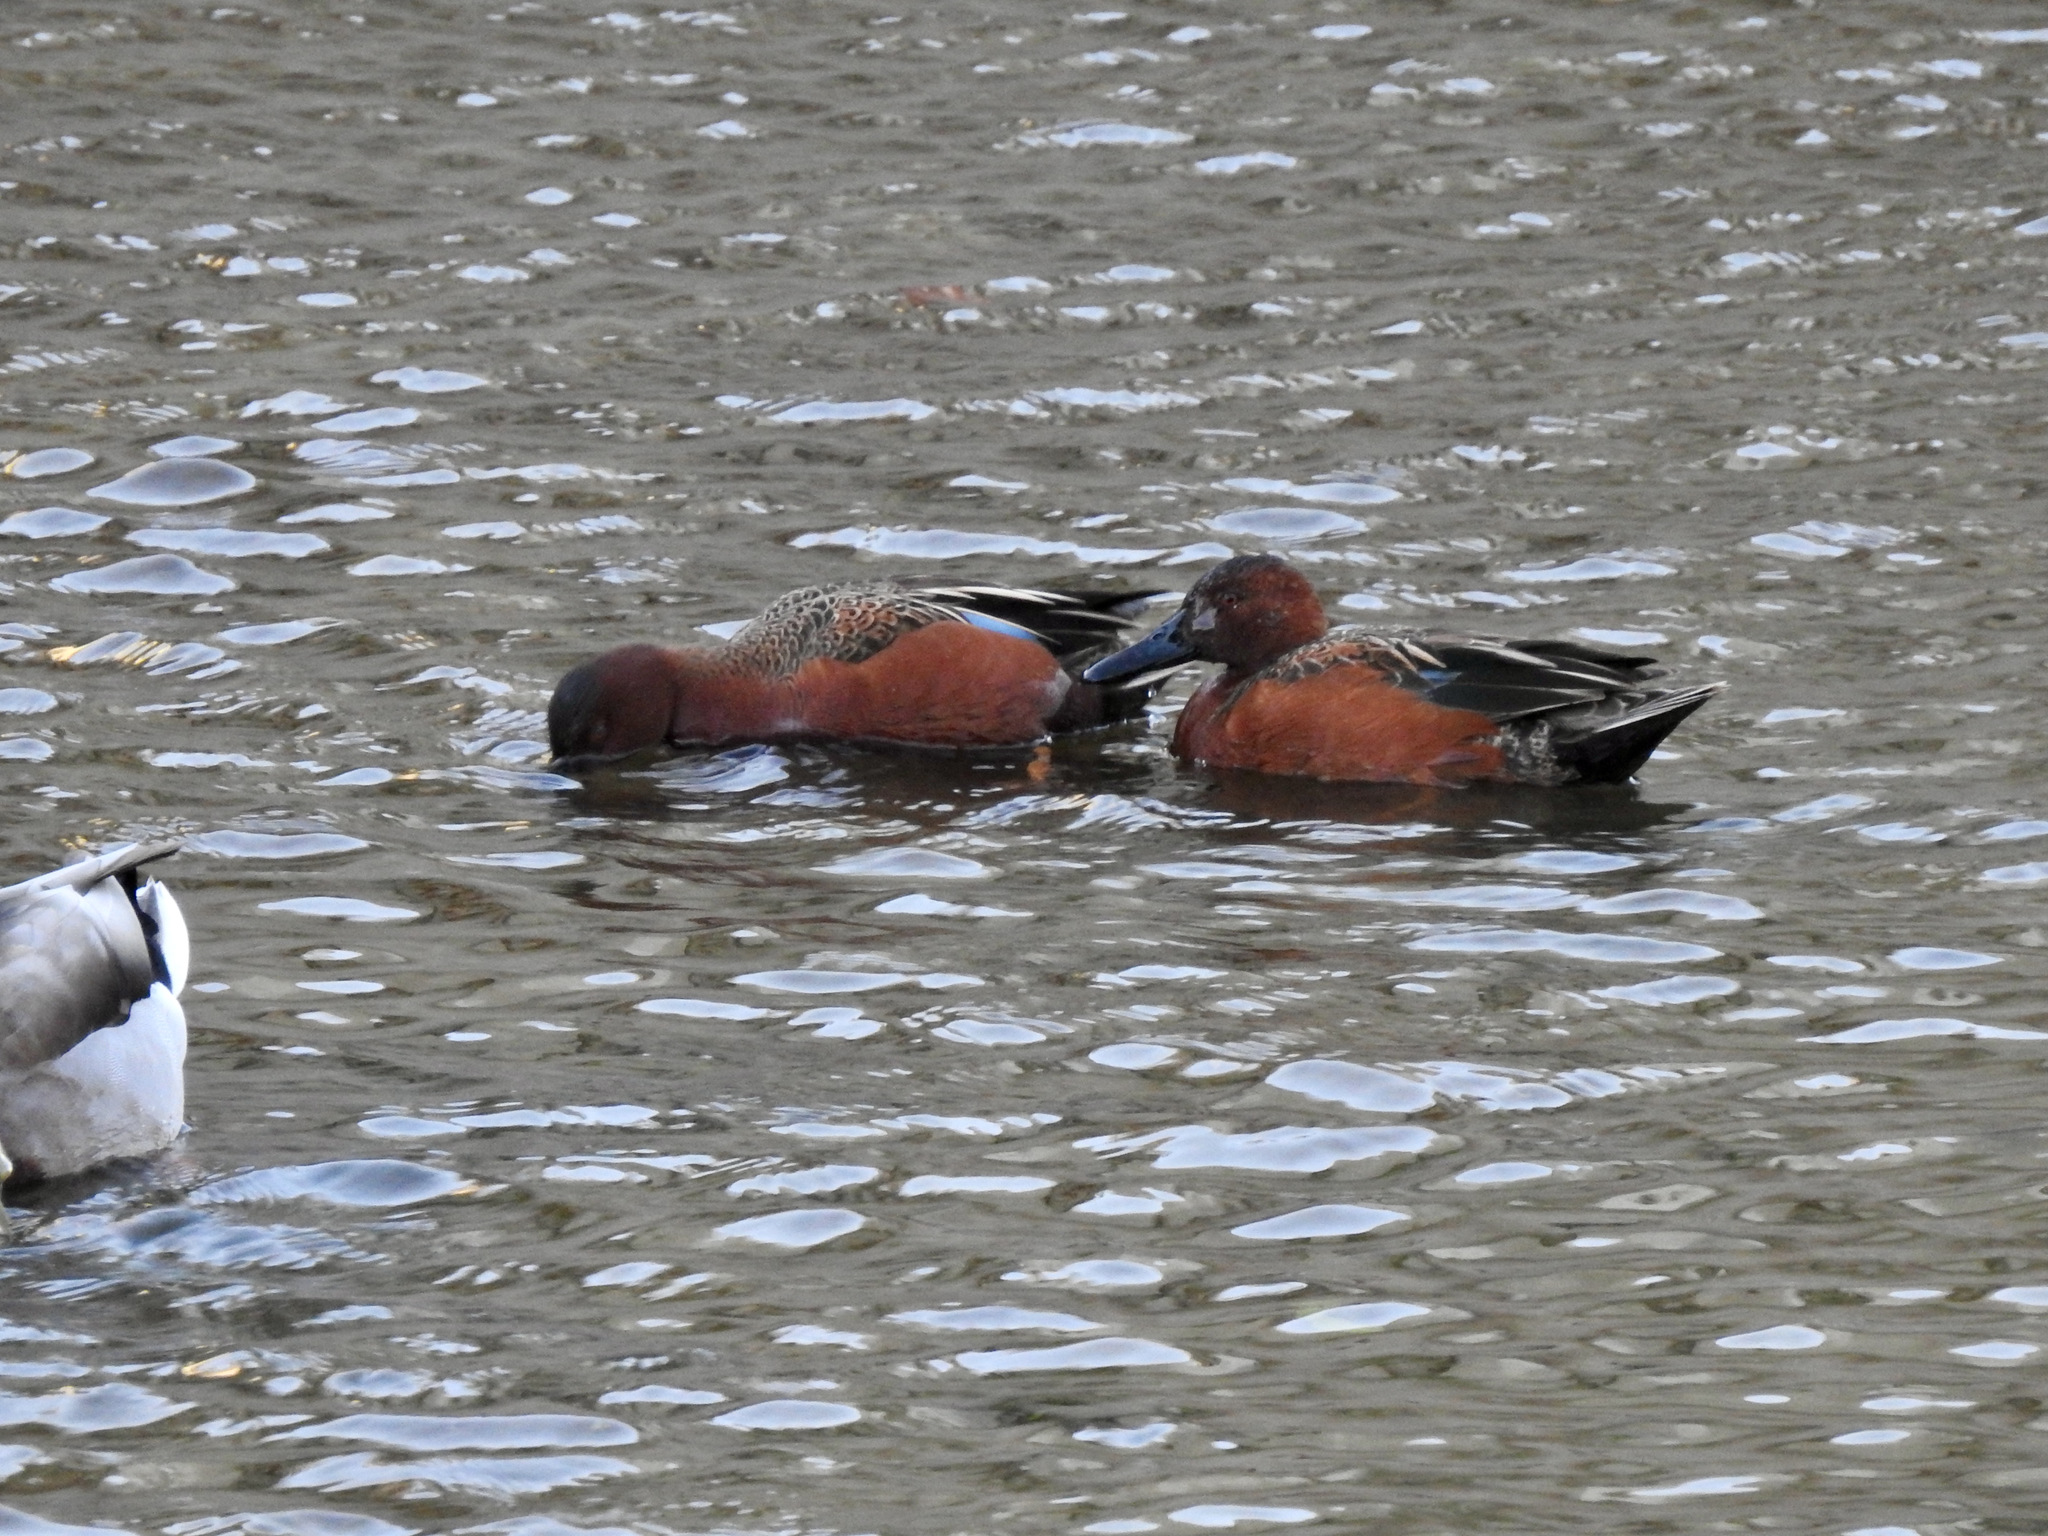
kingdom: Animalia
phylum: Chordata
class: Aves
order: Anseriformes
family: Anatidae
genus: Spatula
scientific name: Spatula cyanoptera
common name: Cinnamon teal
